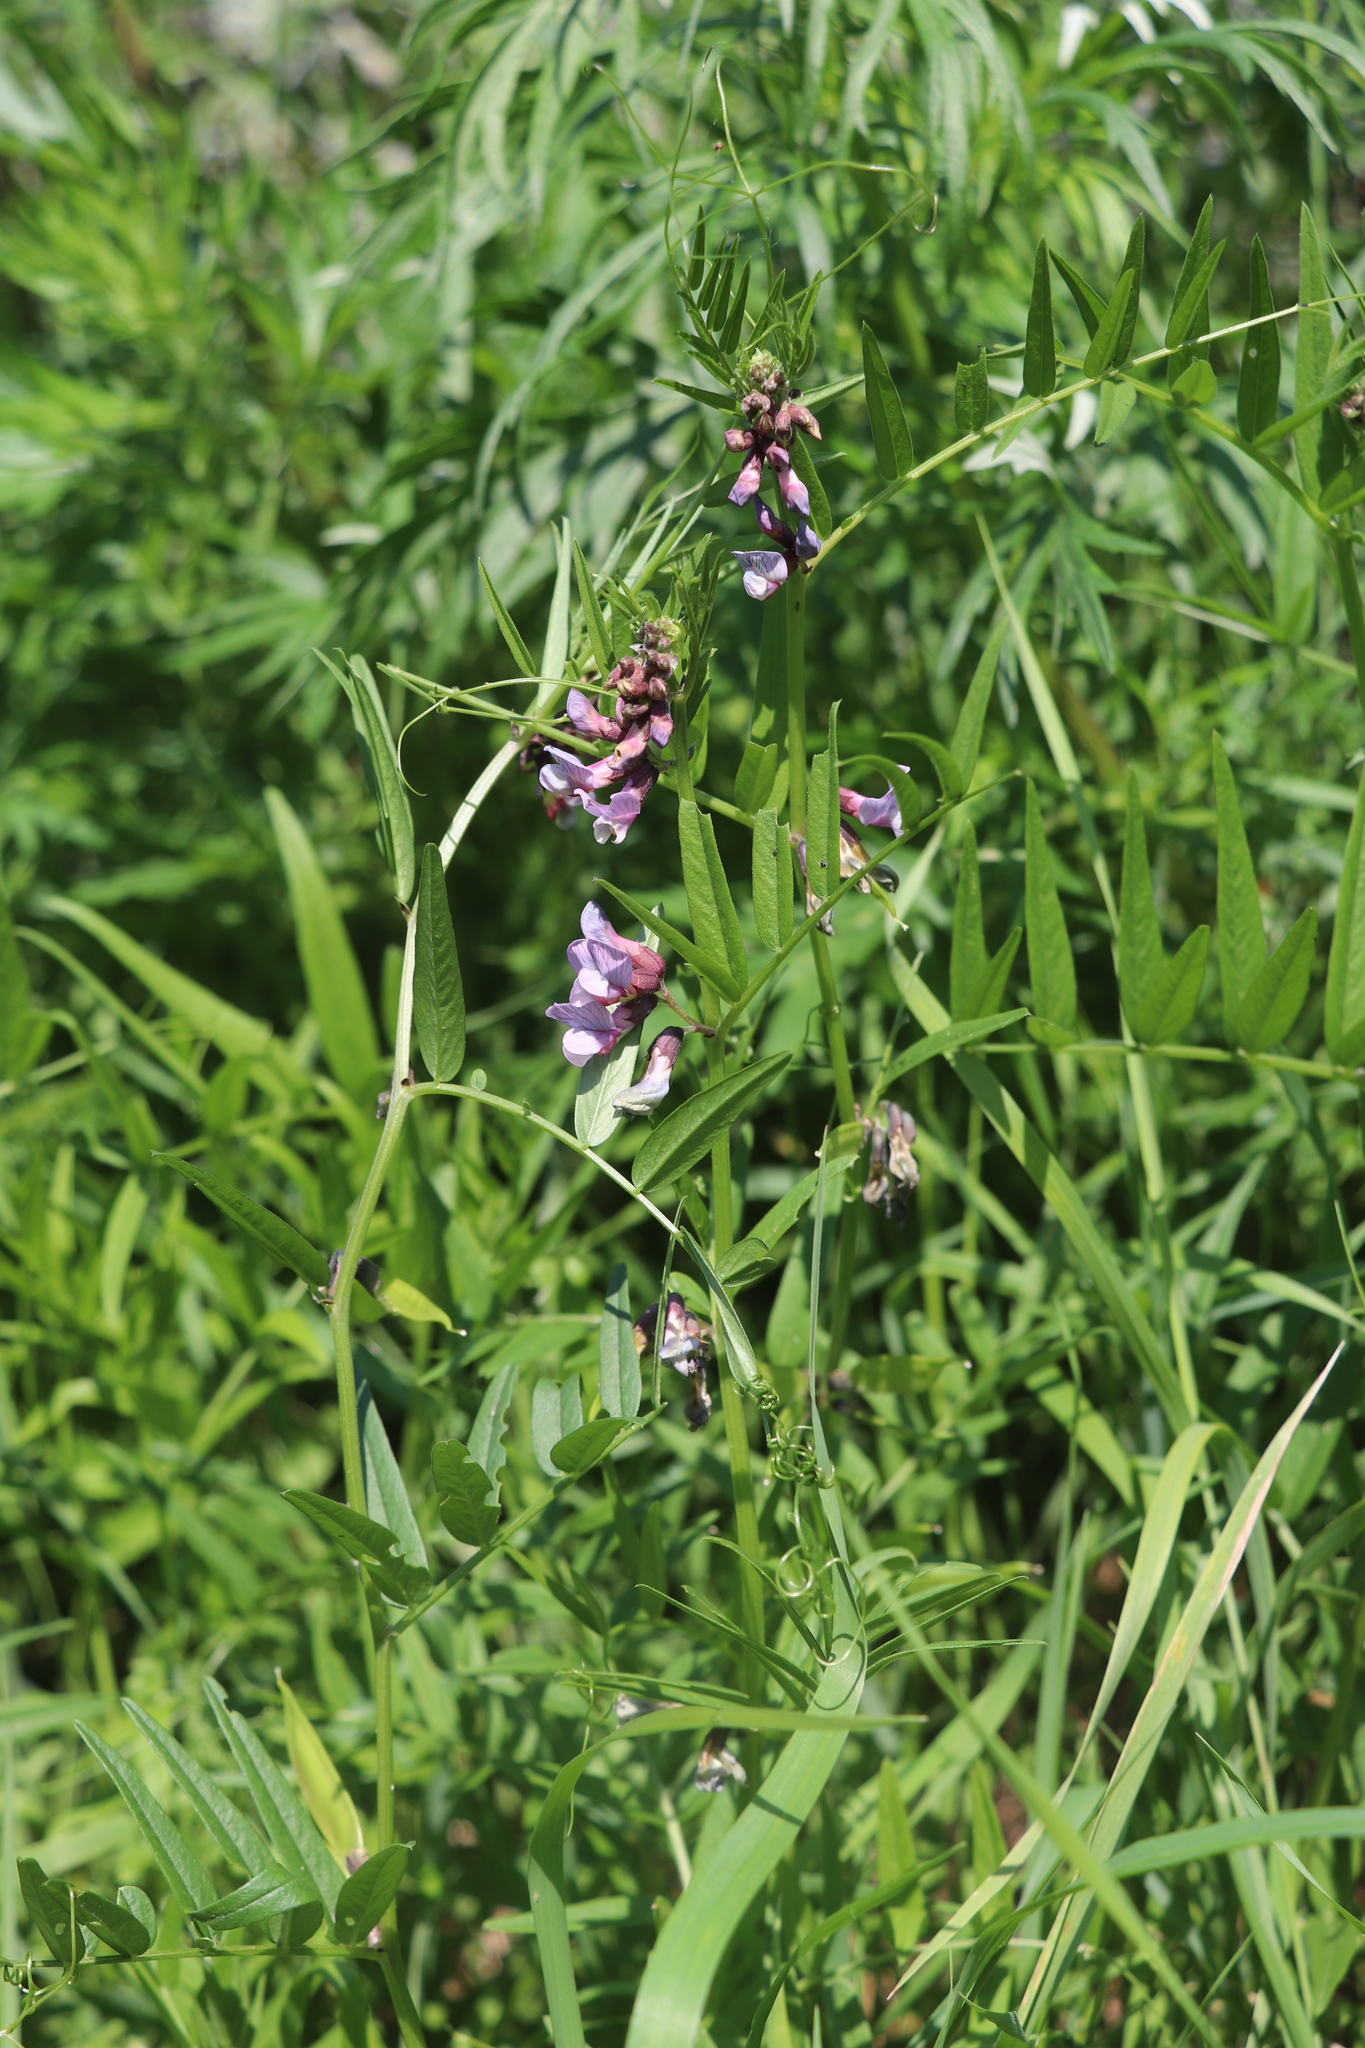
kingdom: Plantae
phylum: Tracheophyta
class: Magnoliopsida
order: Fabales
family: Fabaceae
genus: Vicia
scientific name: Vicia sepium
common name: Bush vetch
